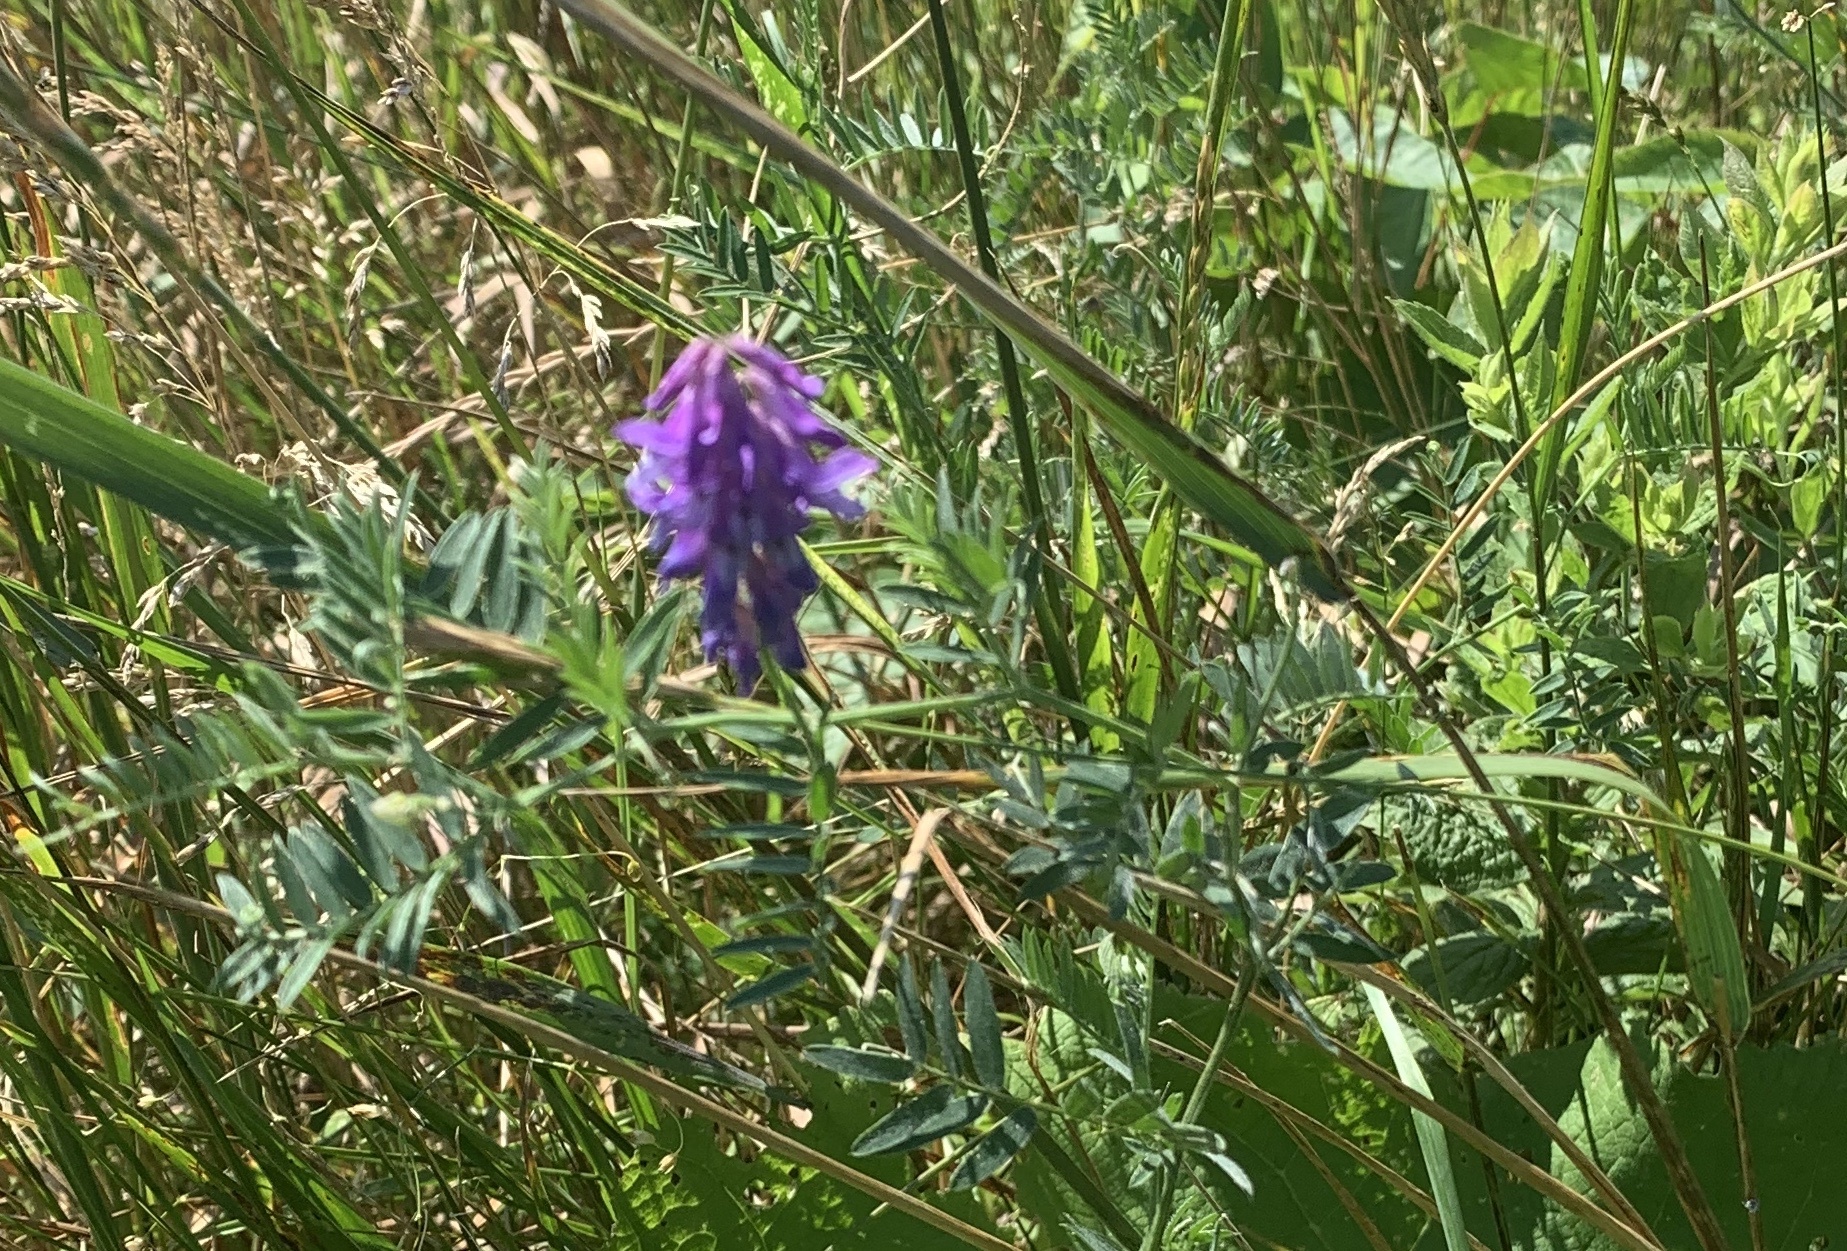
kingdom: Plantae
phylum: Tracheophyta
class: Magnoliopsida
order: Fabales
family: Fabaceae
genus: Vicia
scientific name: Vicia cracca
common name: Bird vetch
